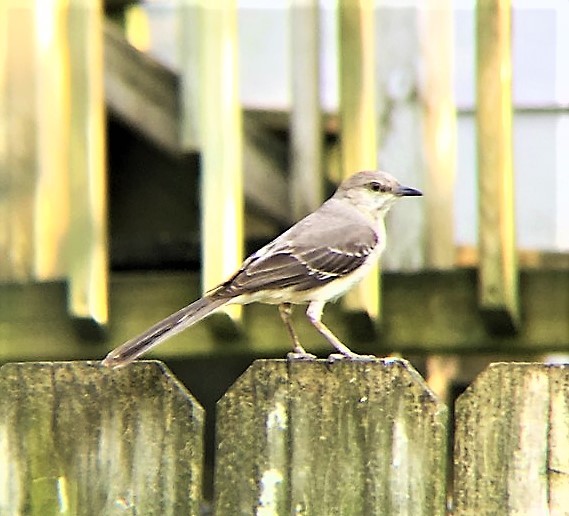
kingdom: Animalia
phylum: Chordata
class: Aves
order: Passeriformes
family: Mimidae
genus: Mimus
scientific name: Mimus polyglottos
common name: Northern mockingbird
